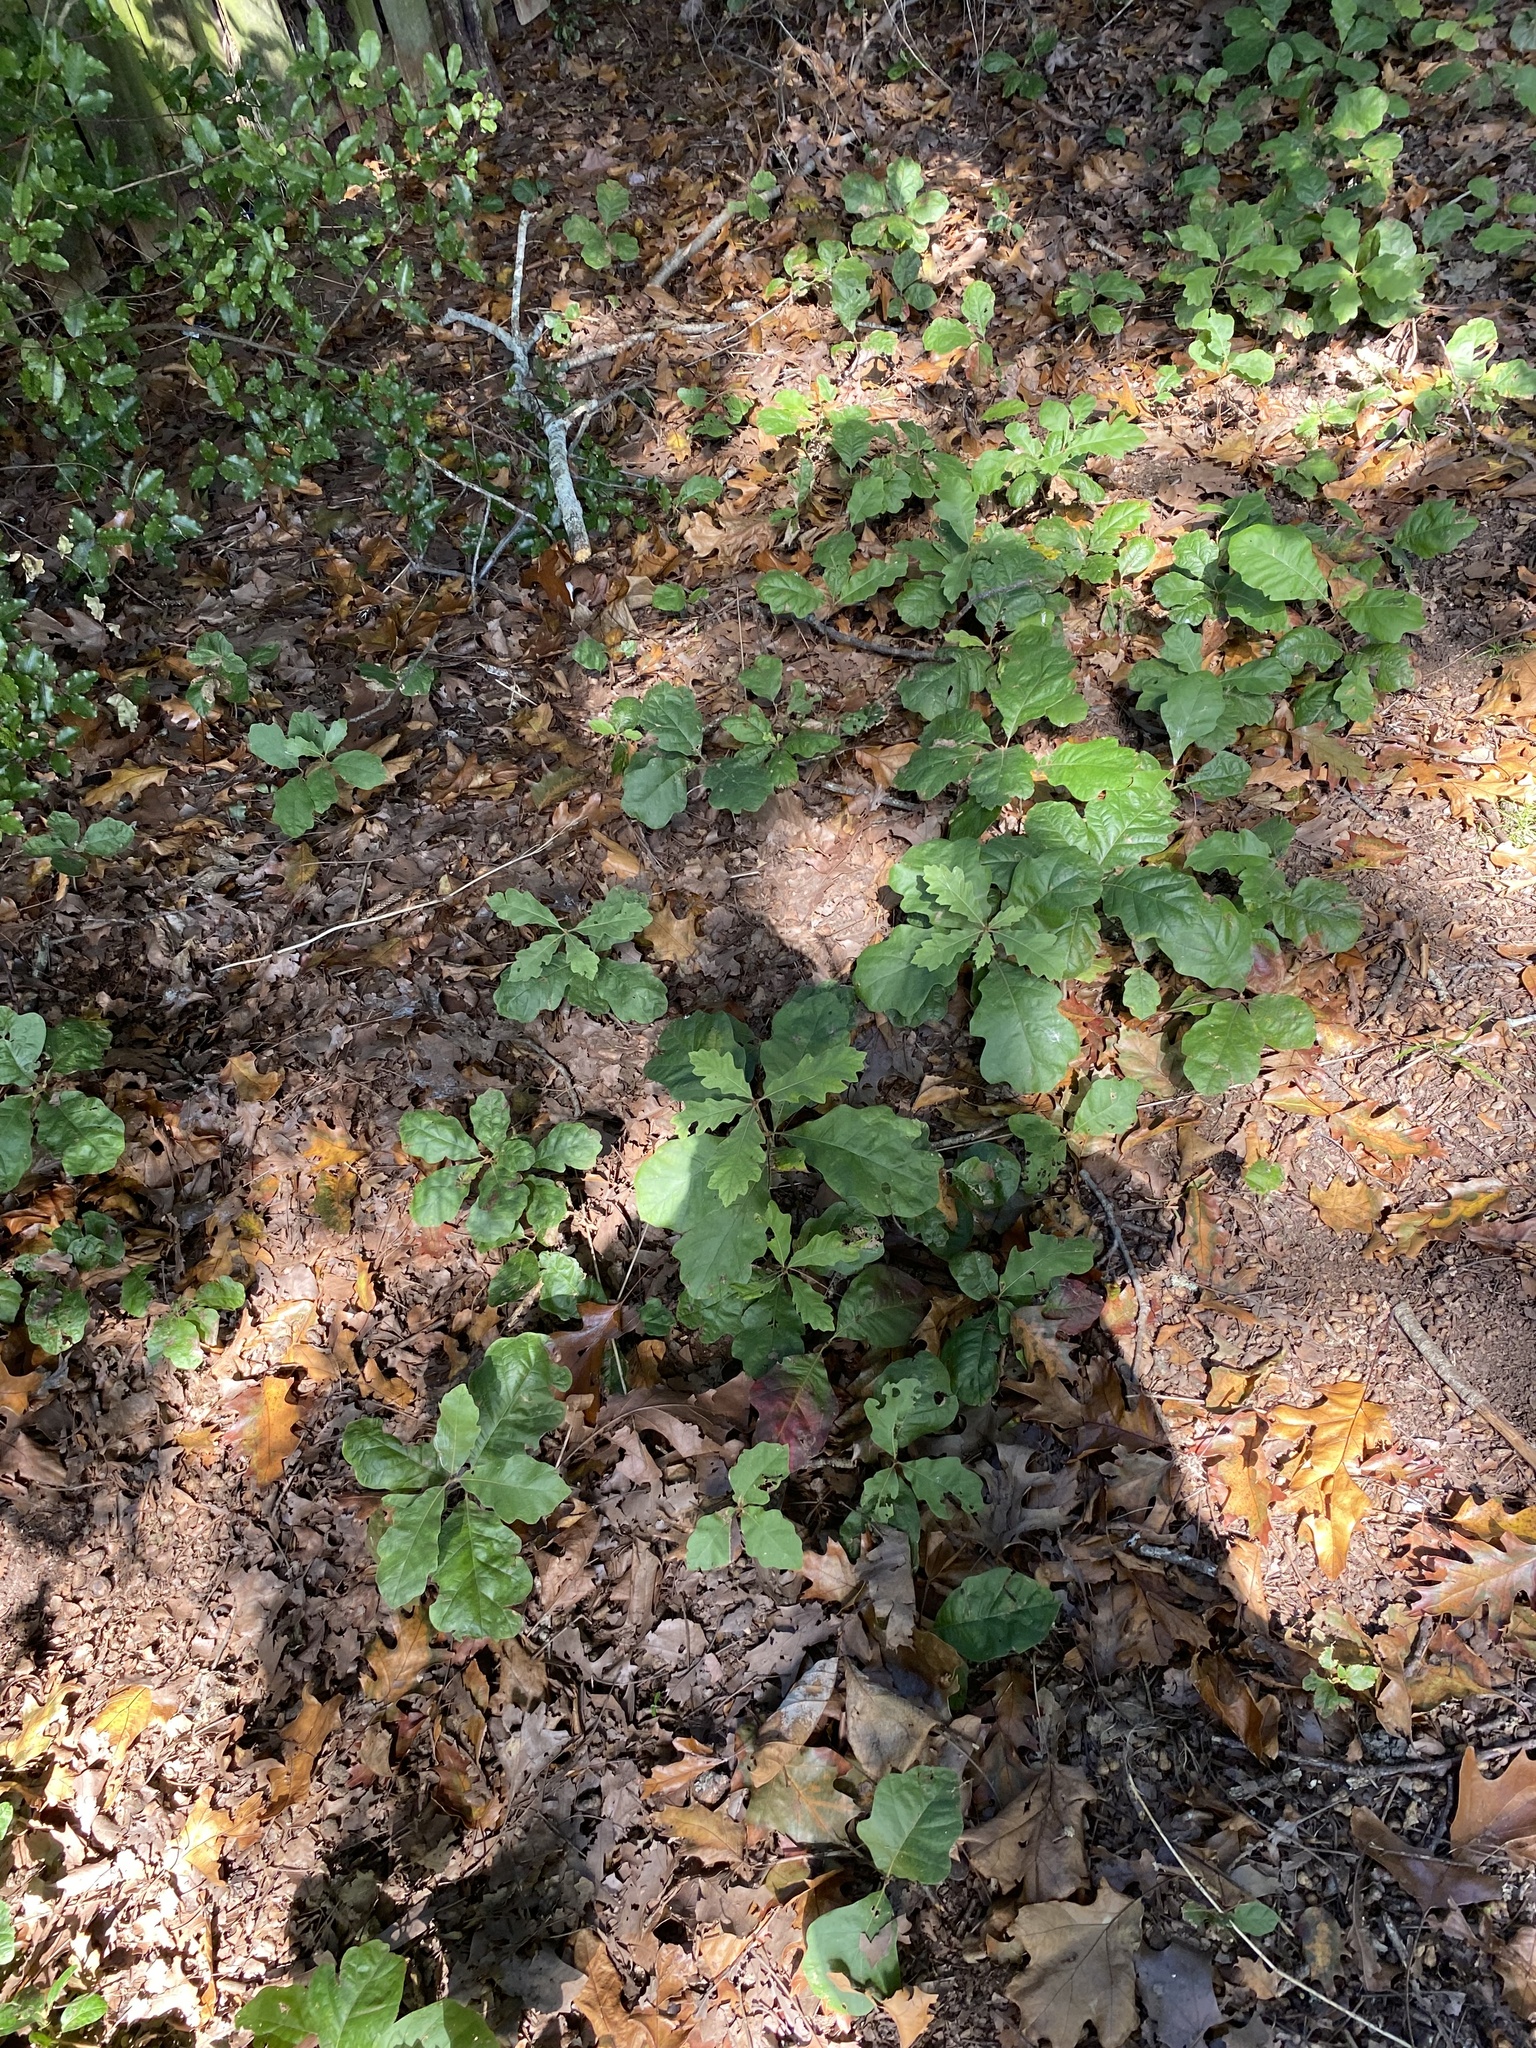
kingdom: Plantae
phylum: Tracheophyta
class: Magnoliopsida
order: Fagales
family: Fagaceae
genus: Quercus
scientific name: Quercus velutina
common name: Black oak
